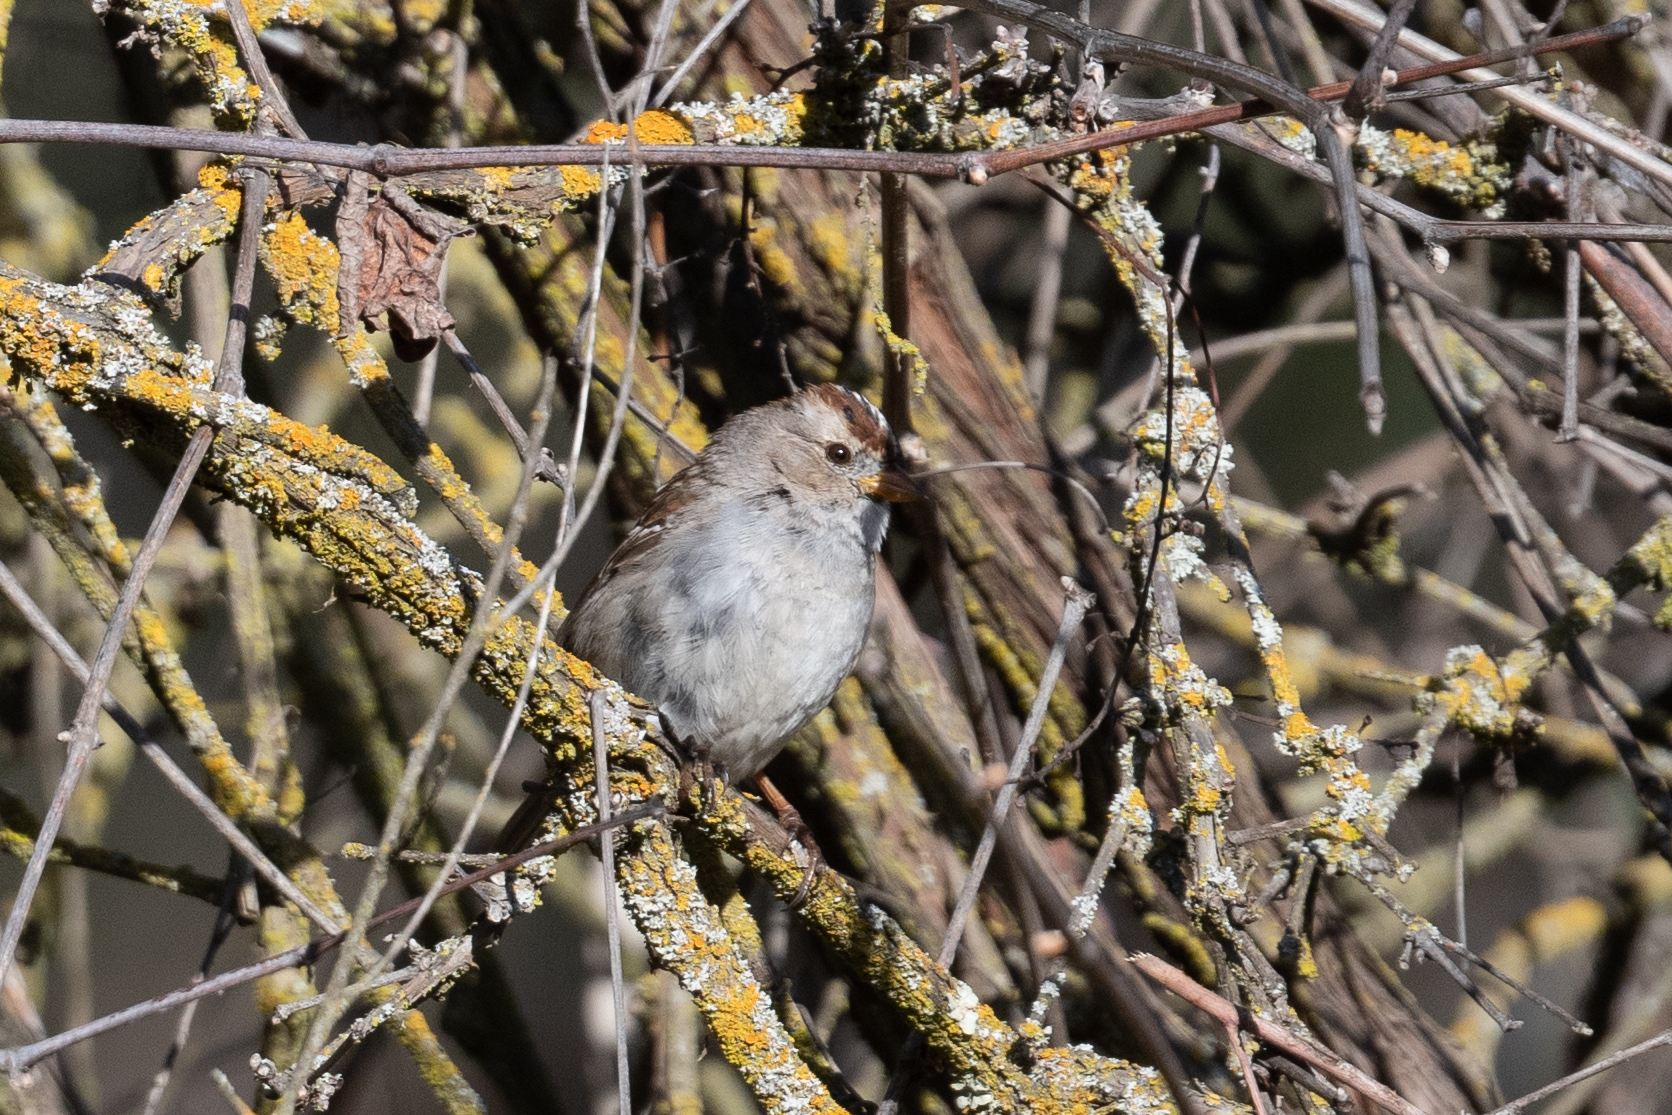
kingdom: Animalia
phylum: Chordata
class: Aves
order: Passeriformes
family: Passerellidae
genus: Zonotrichia
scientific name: Zonotrichia leucophrys
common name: White-crowned sparrow
